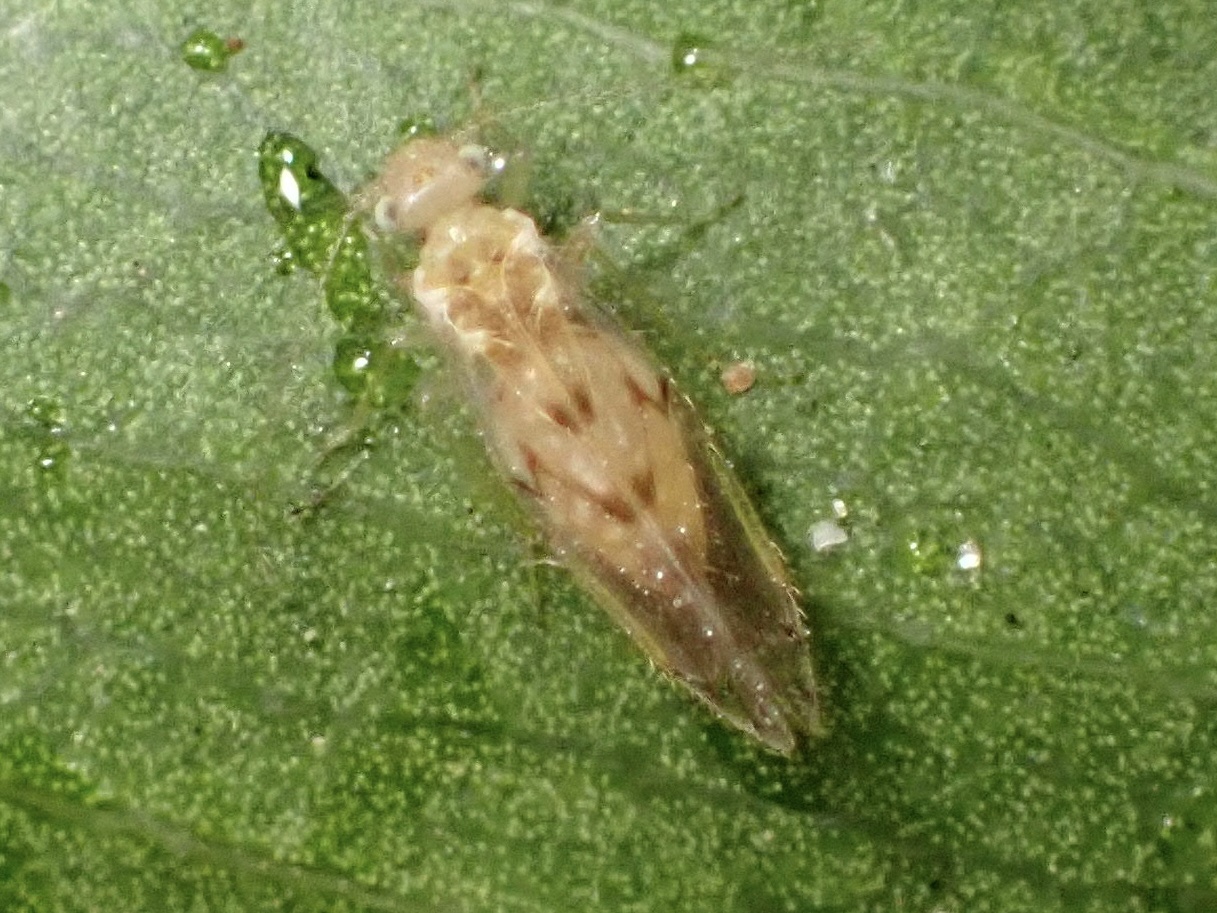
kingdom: Animalia
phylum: Arthropoda
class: Insecta
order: Psocodea
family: Trichopsocidae
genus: Trichopsocus
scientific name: Trichopsocus clarus
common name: Lash-faced psocid
